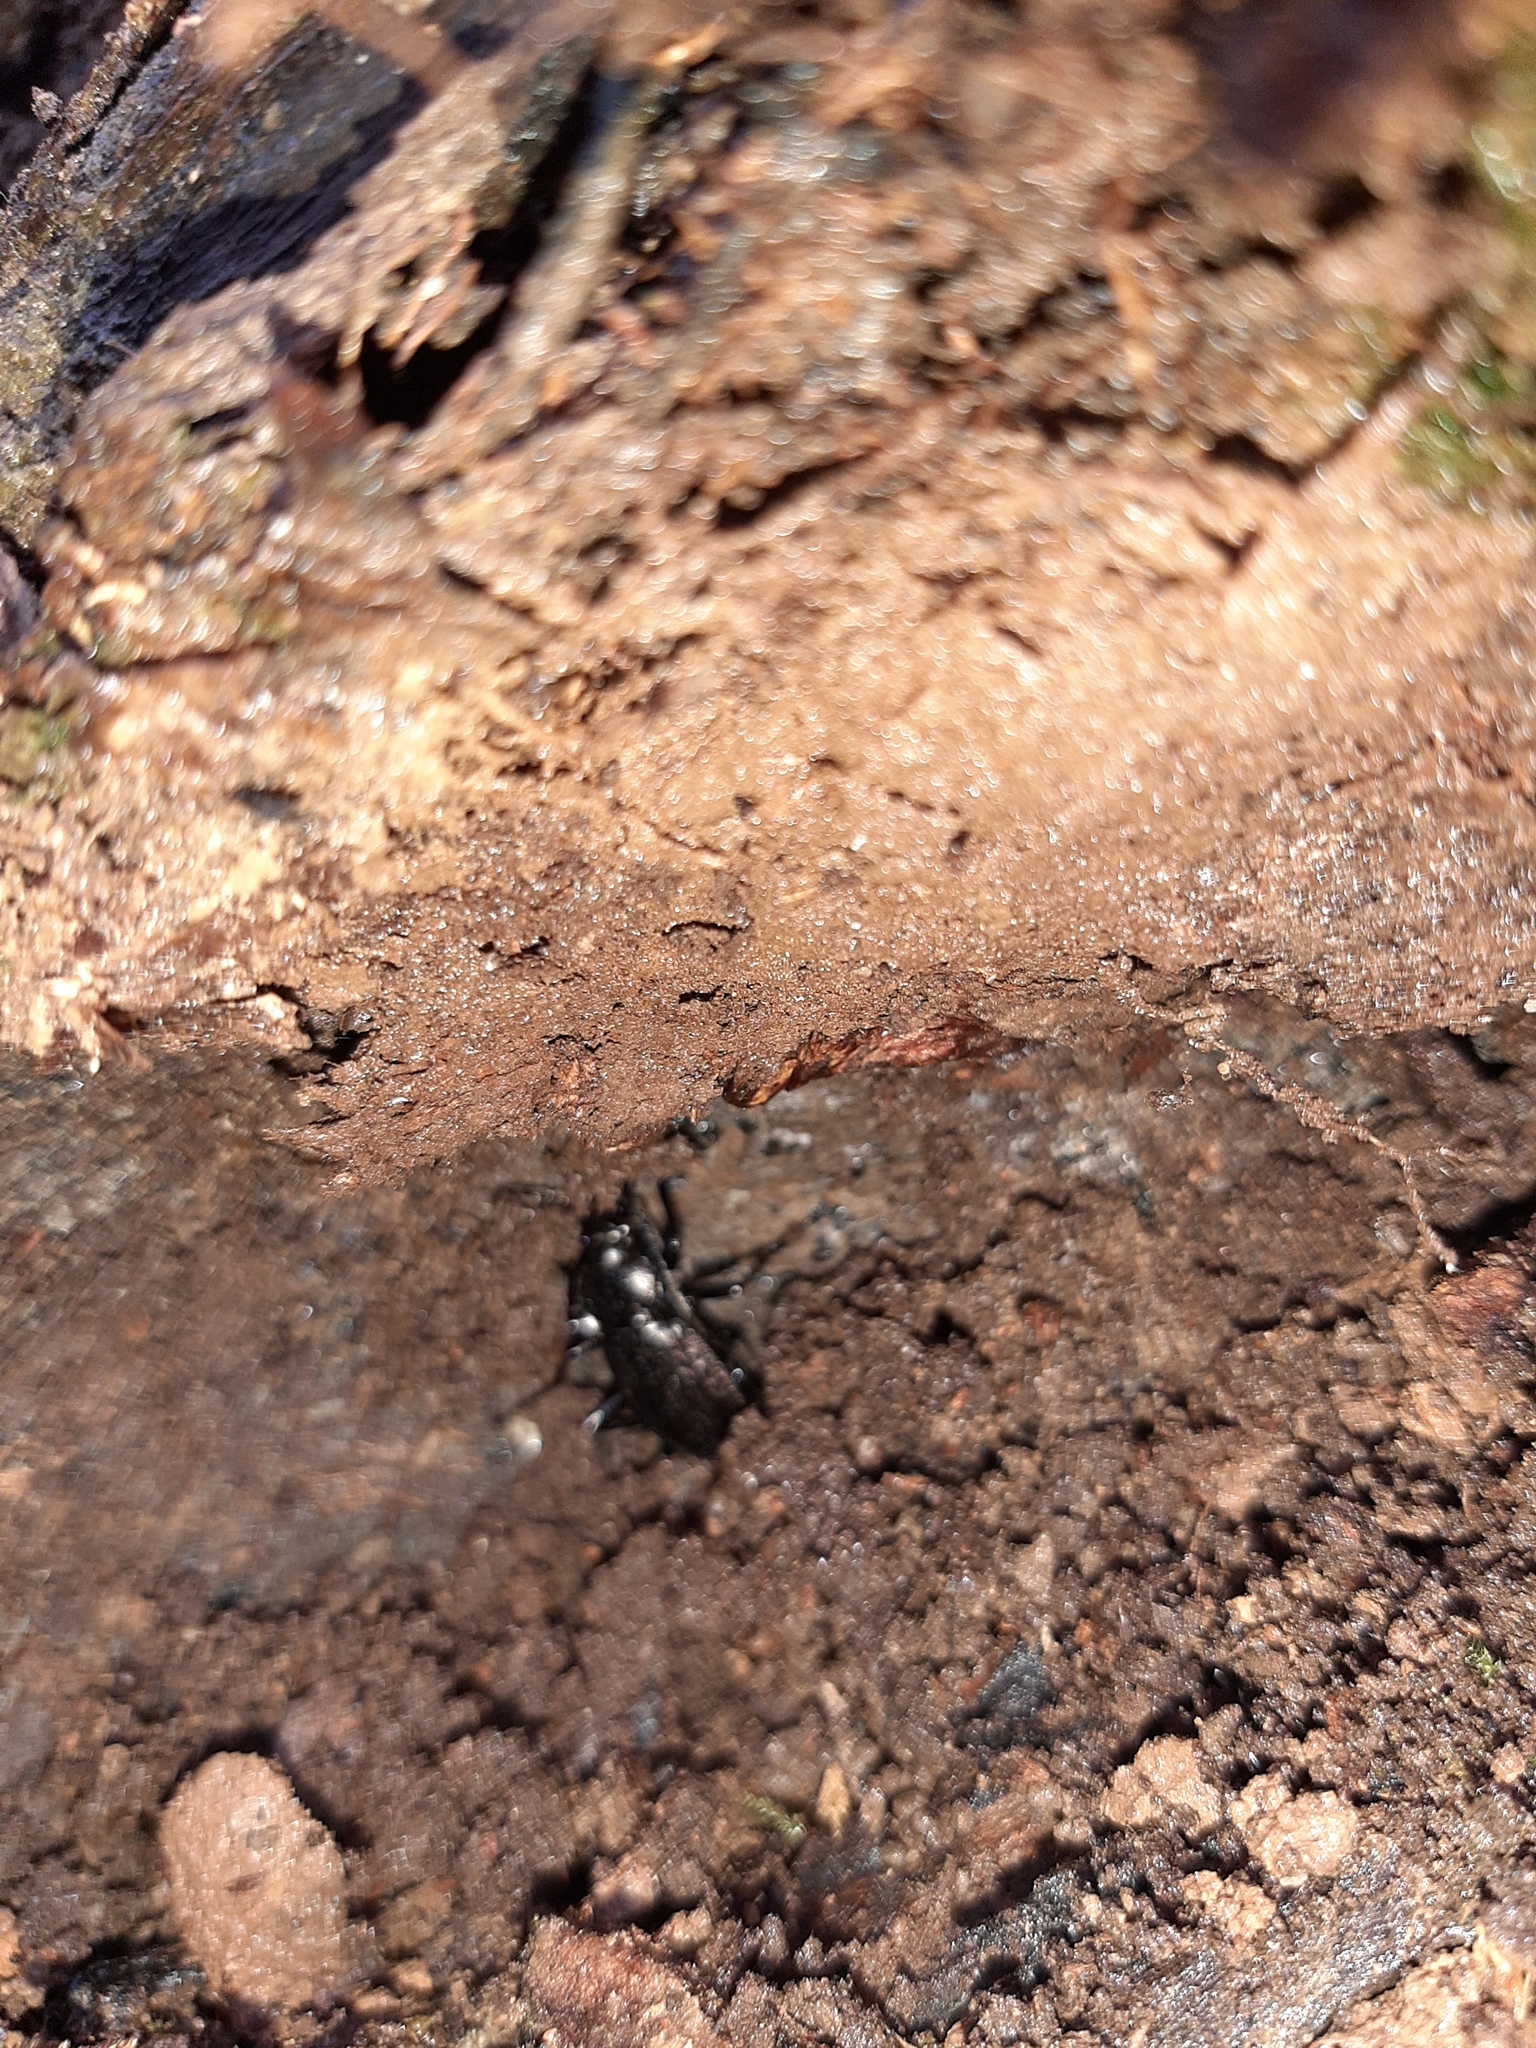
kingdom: Animalia
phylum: Arthropoda
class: Insecta
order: Coleoptera
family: Carabidae
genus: Carabus
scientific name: Carabus granulatus
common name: Granulate ground beetle
